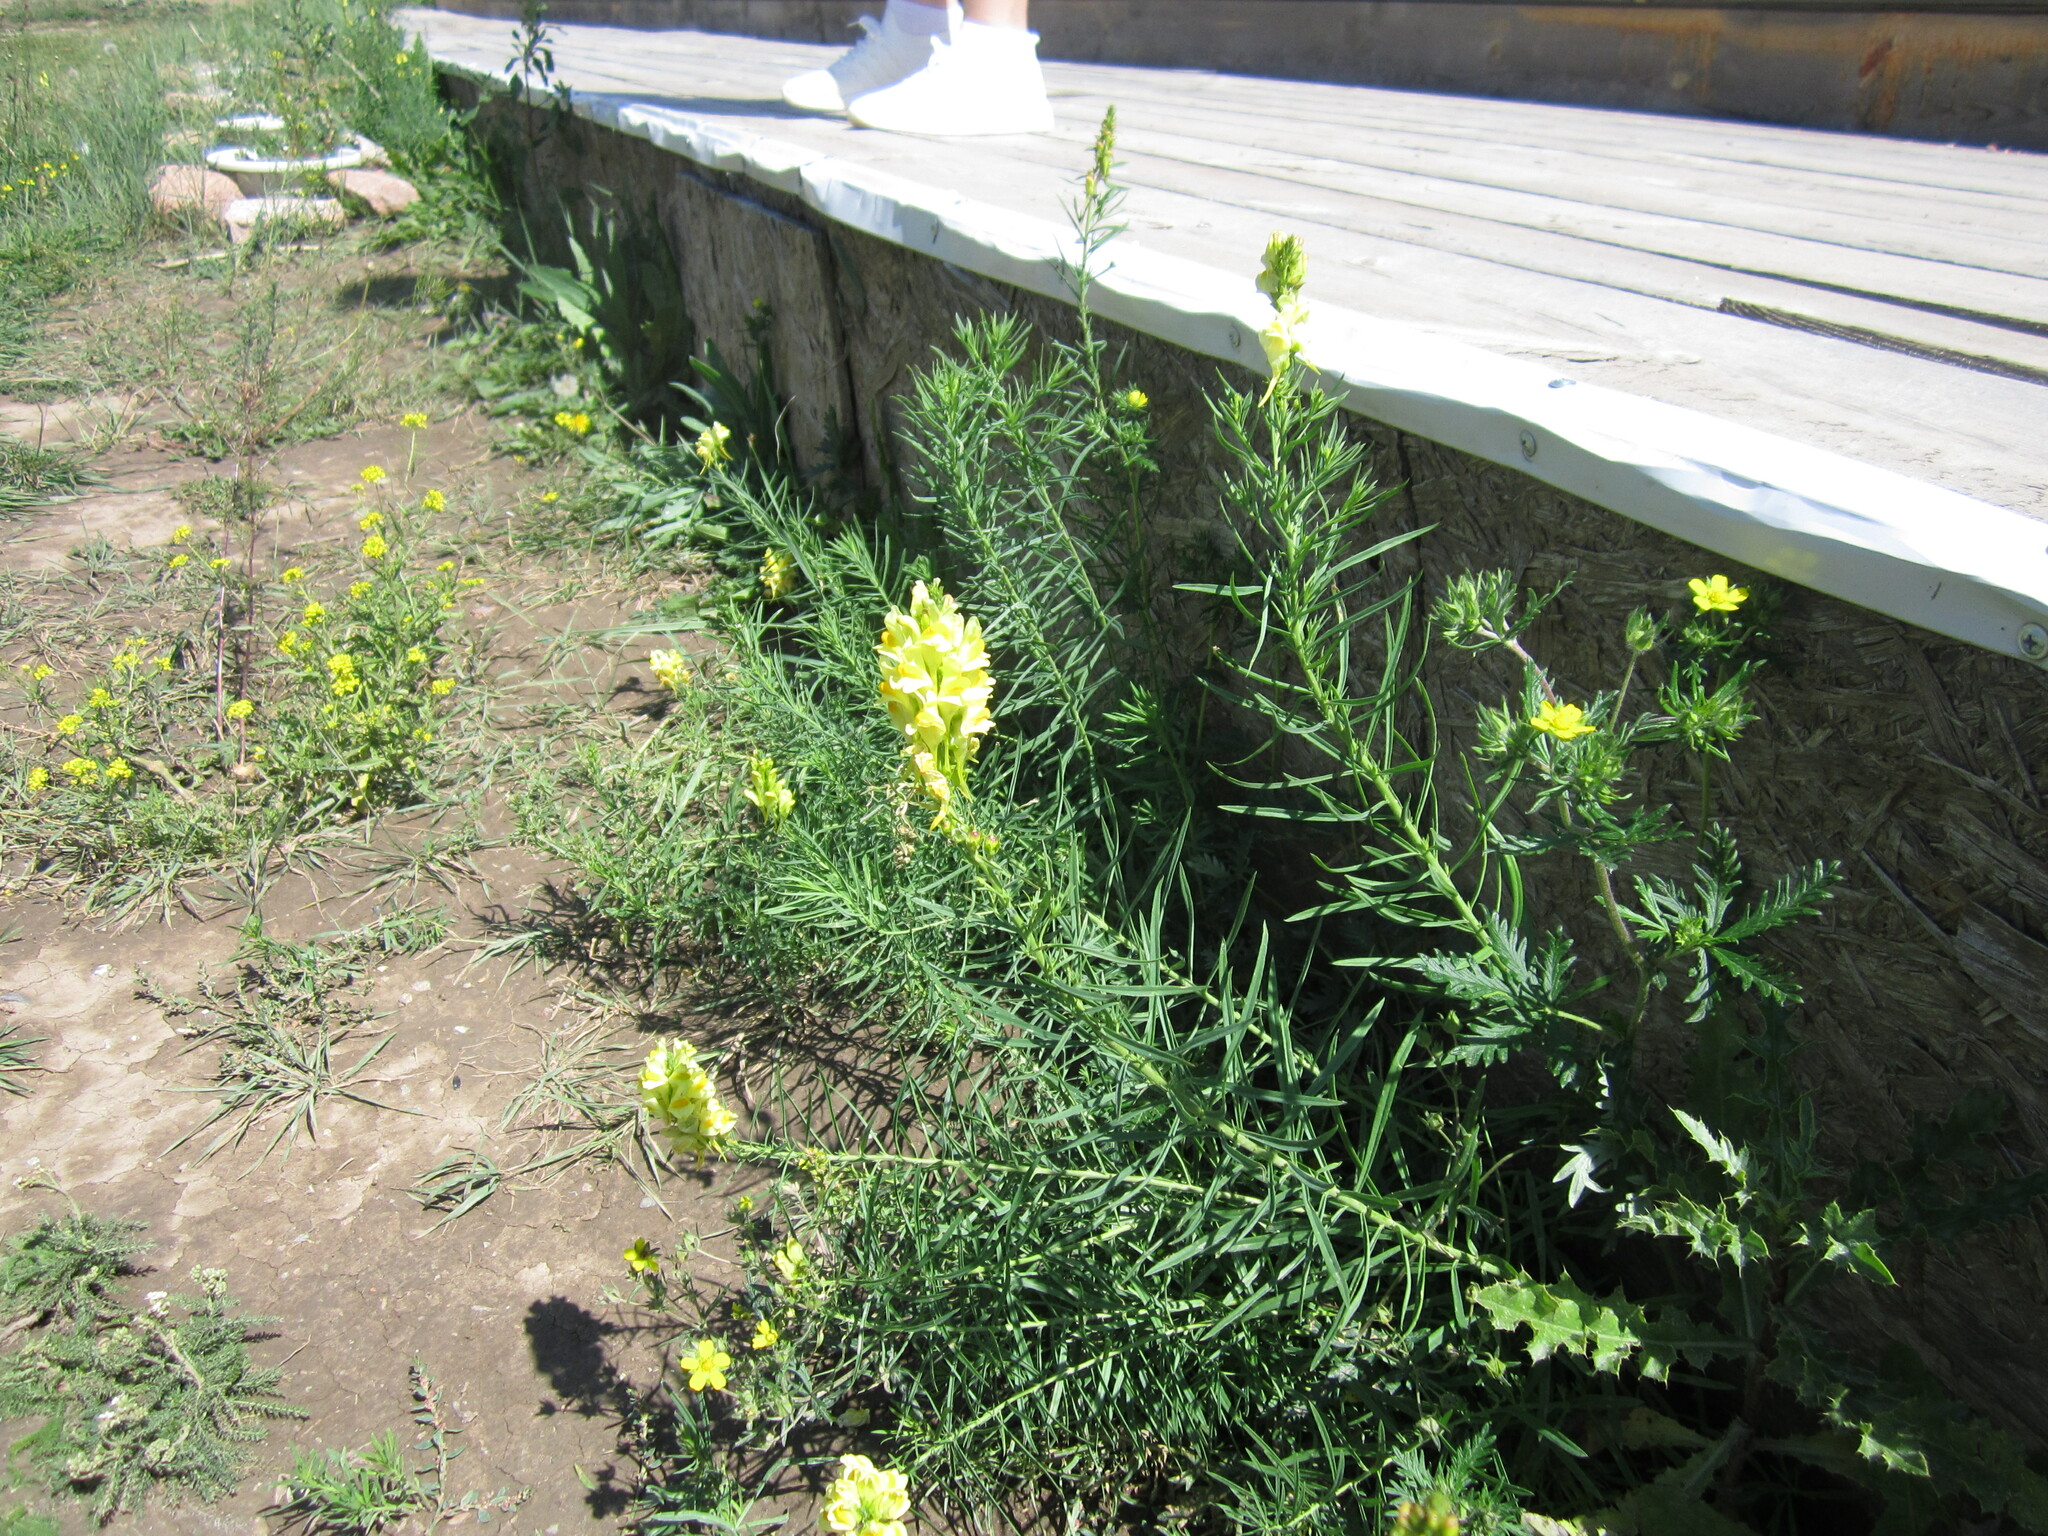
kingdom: Plantae
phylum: Tracheophyta
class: Magnoliopsida
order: Lamiales
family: Plantaginaceae
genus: Linaria
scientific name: Linaria vulgaris
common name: Butter and eggs
